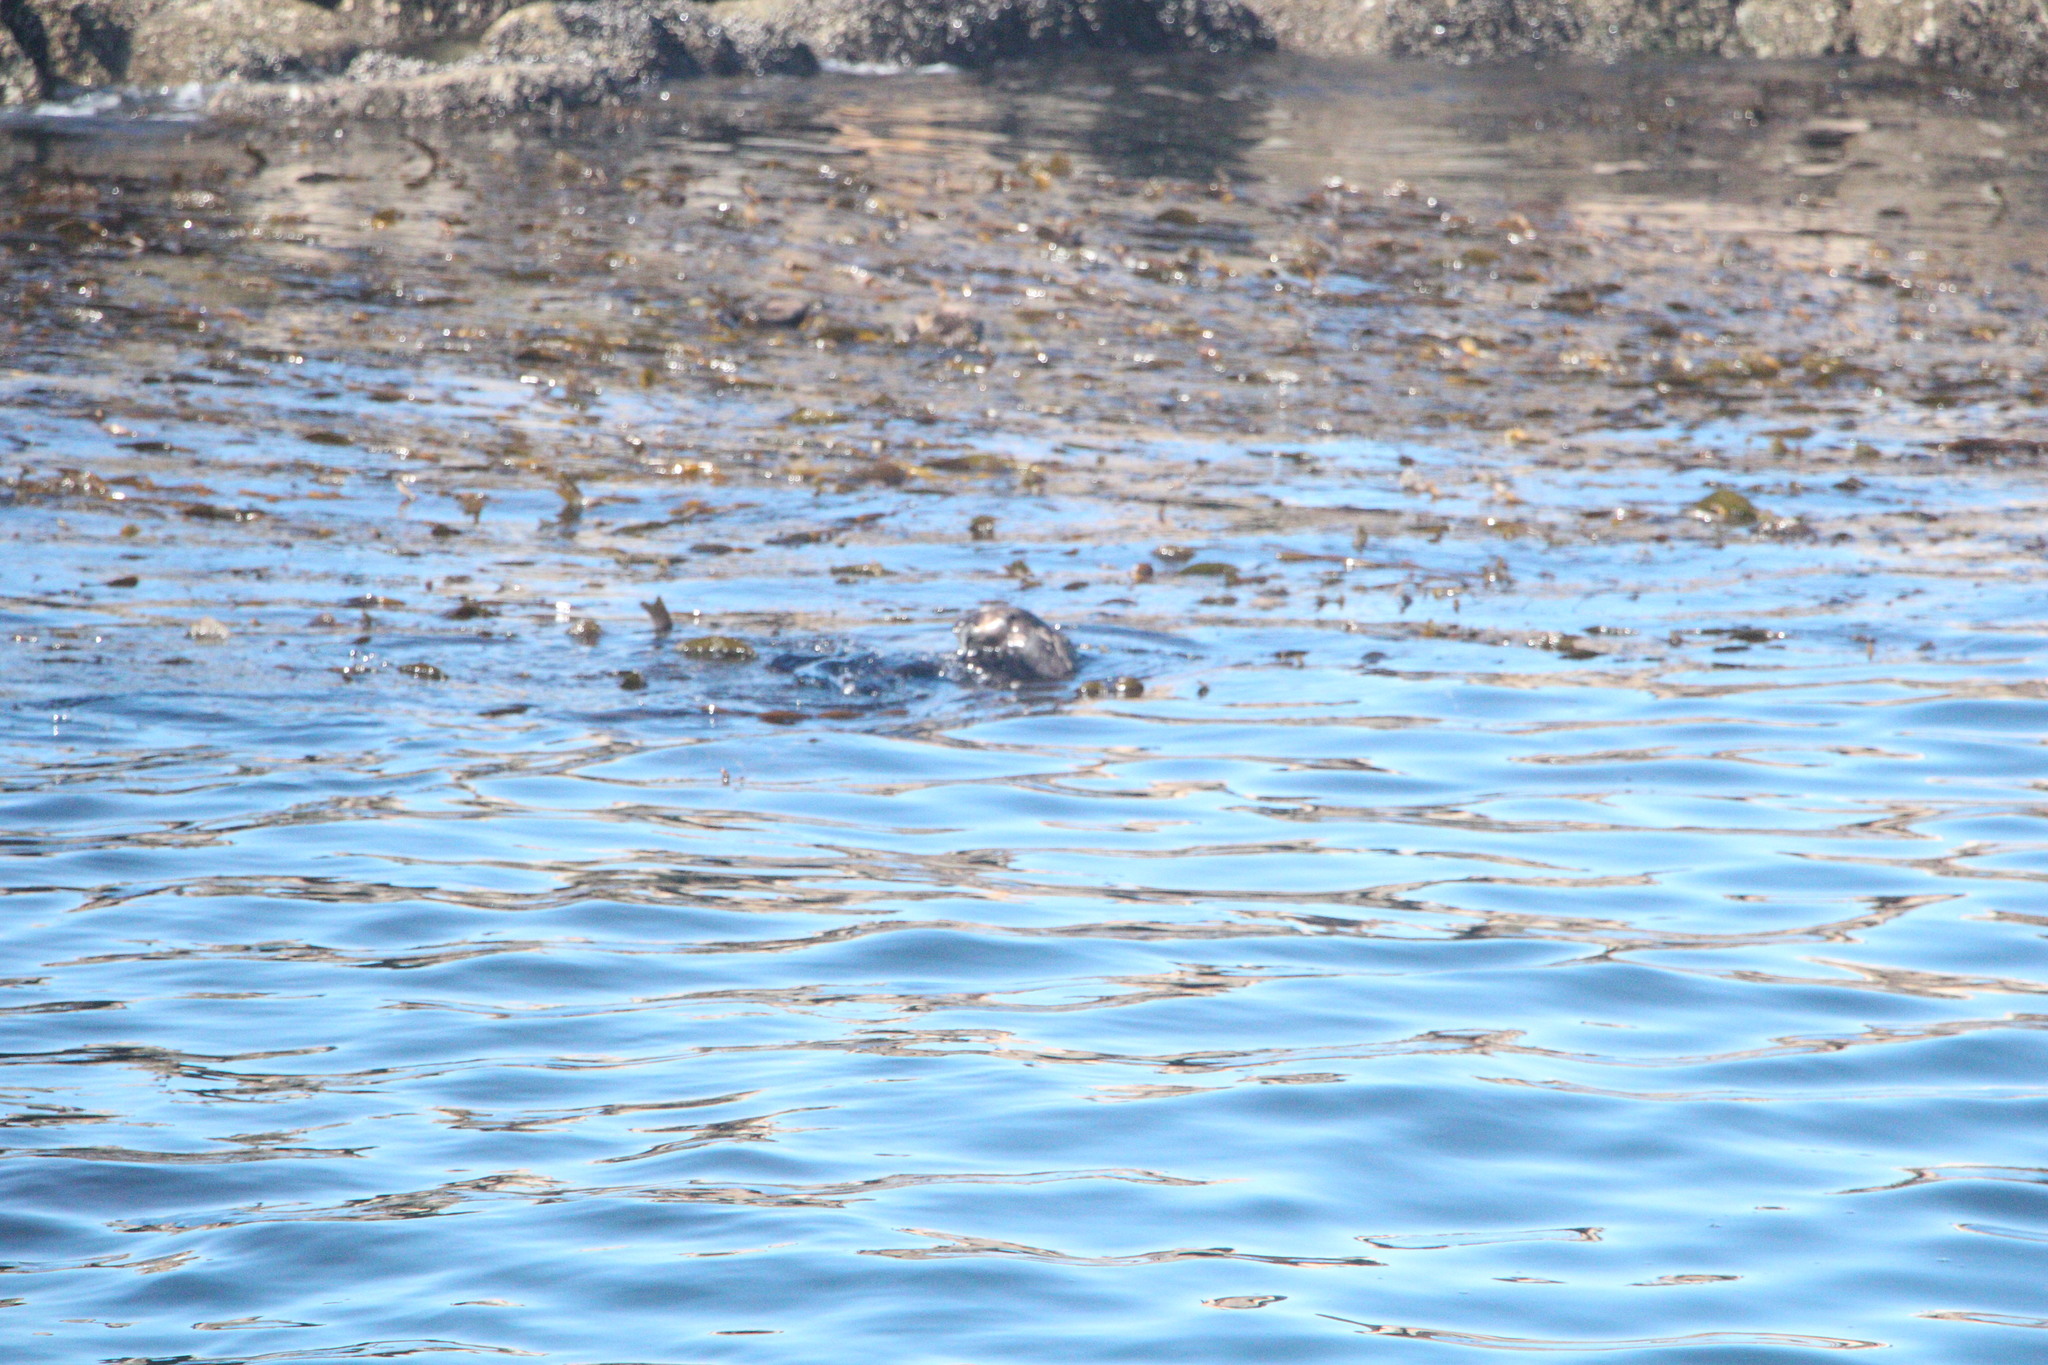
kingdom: Animalia
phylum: Chordata
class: Mammalia
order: Carnivora
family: Mustelidae
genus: Enhydra
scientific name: Enhydra lutris
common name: Sea otter
